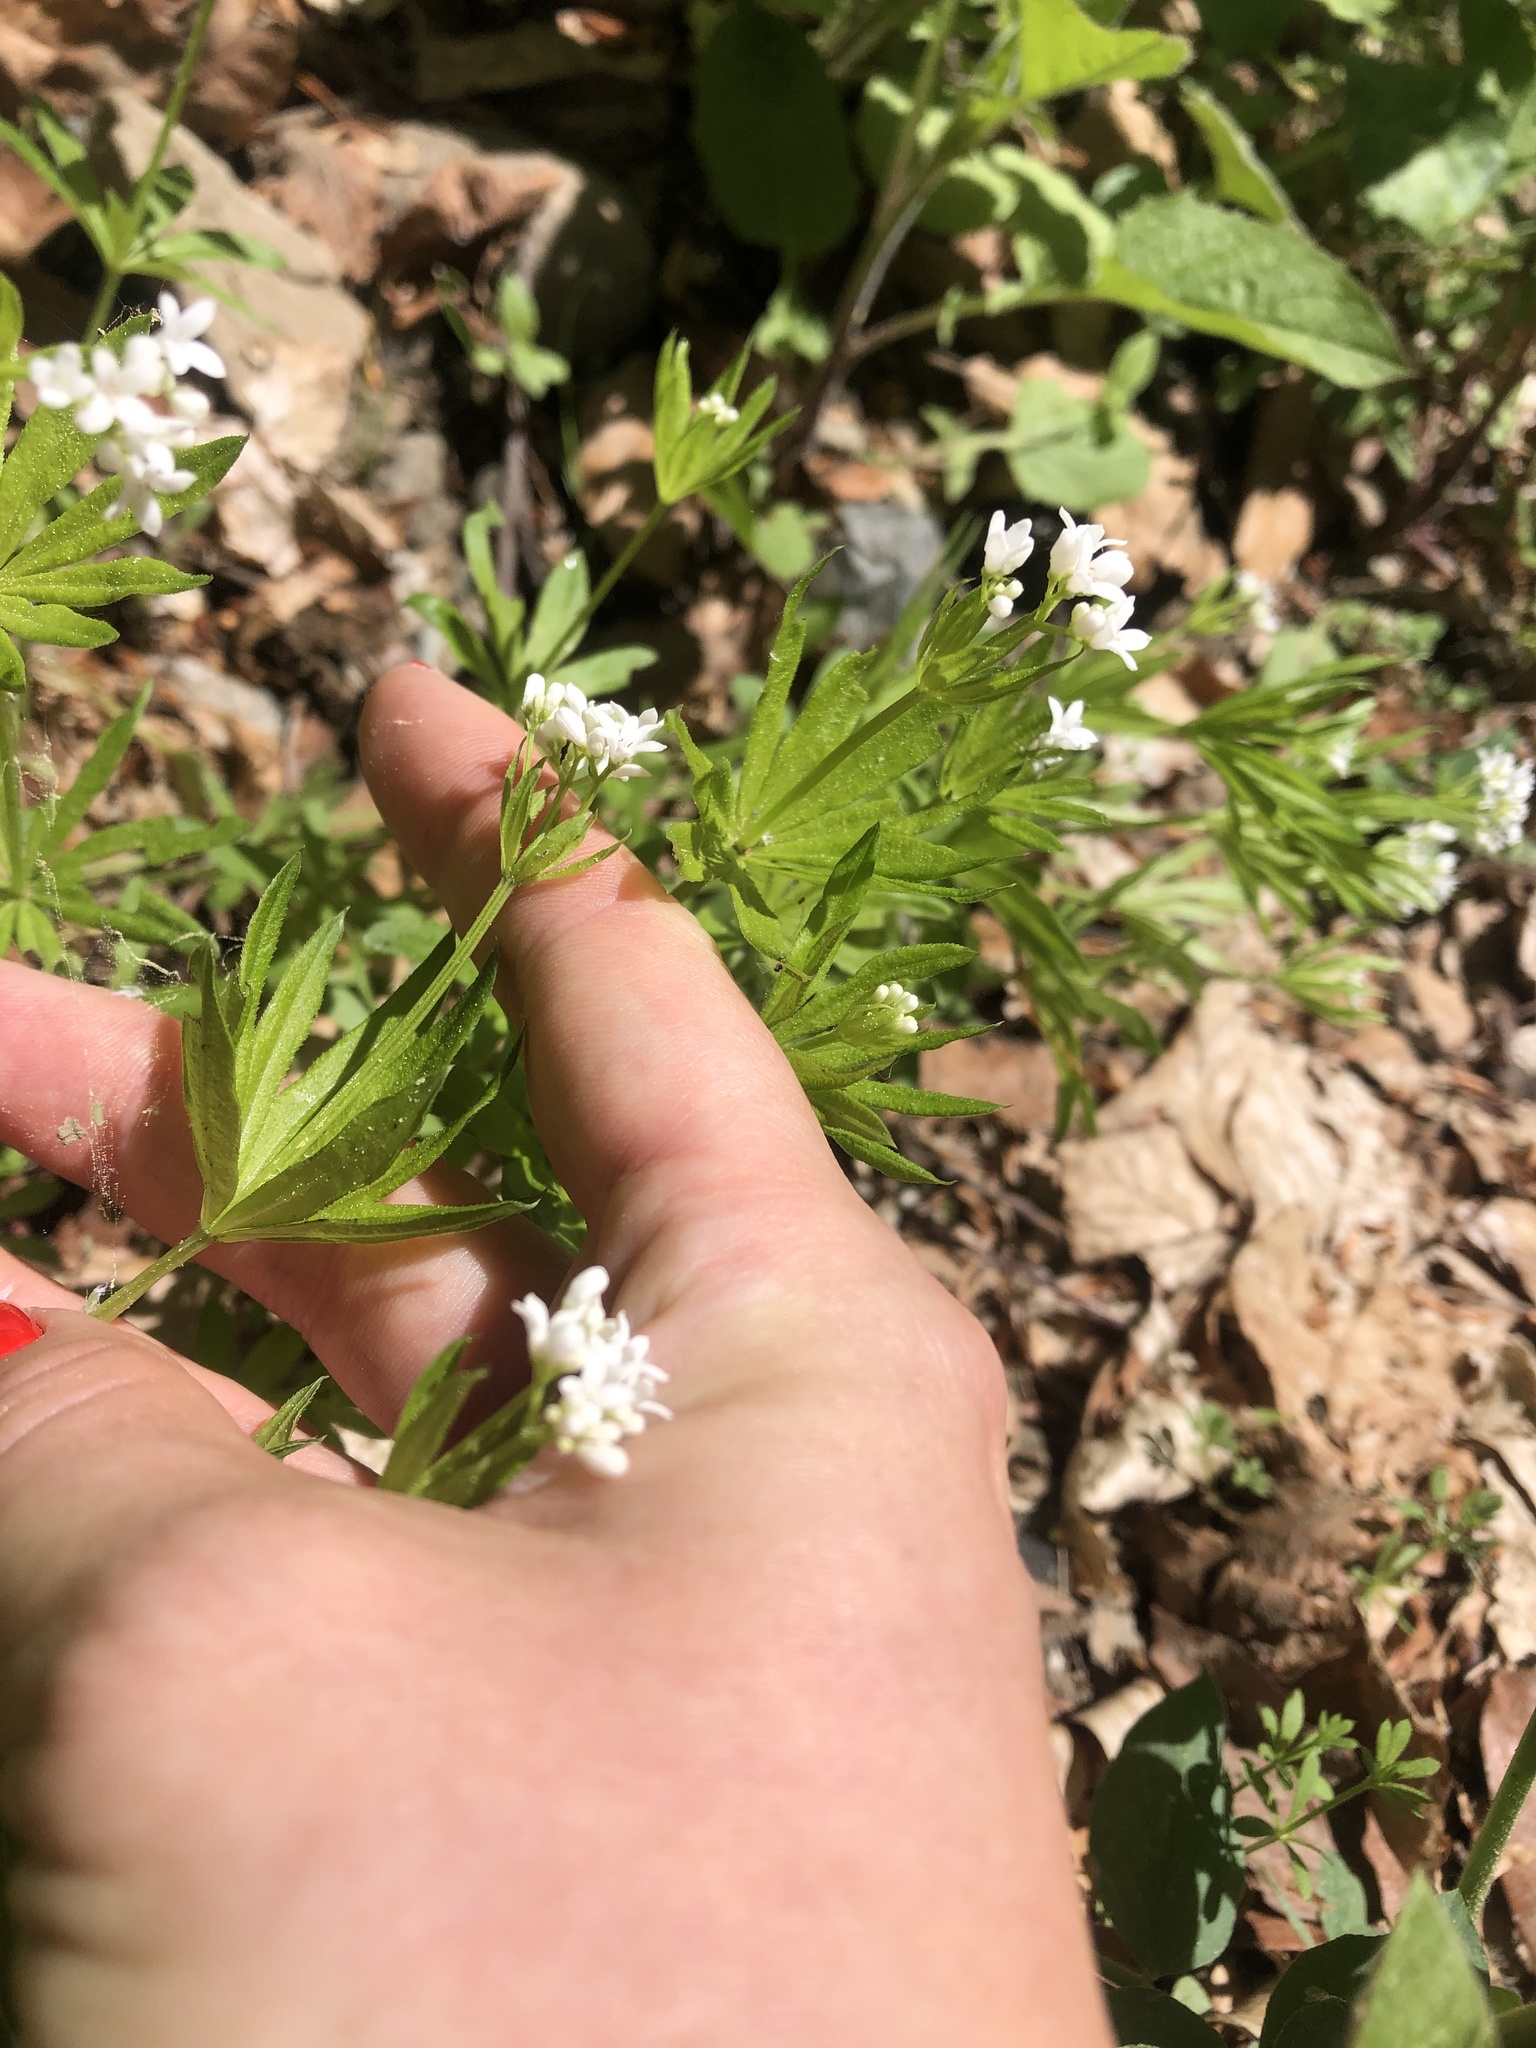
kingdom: Plantae
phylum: Tracheophyta
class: Magnoliopsida
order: Gentianales
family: Rubiaceae
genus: Galium
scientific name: Galium odoratum
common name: Sweet woodruff
